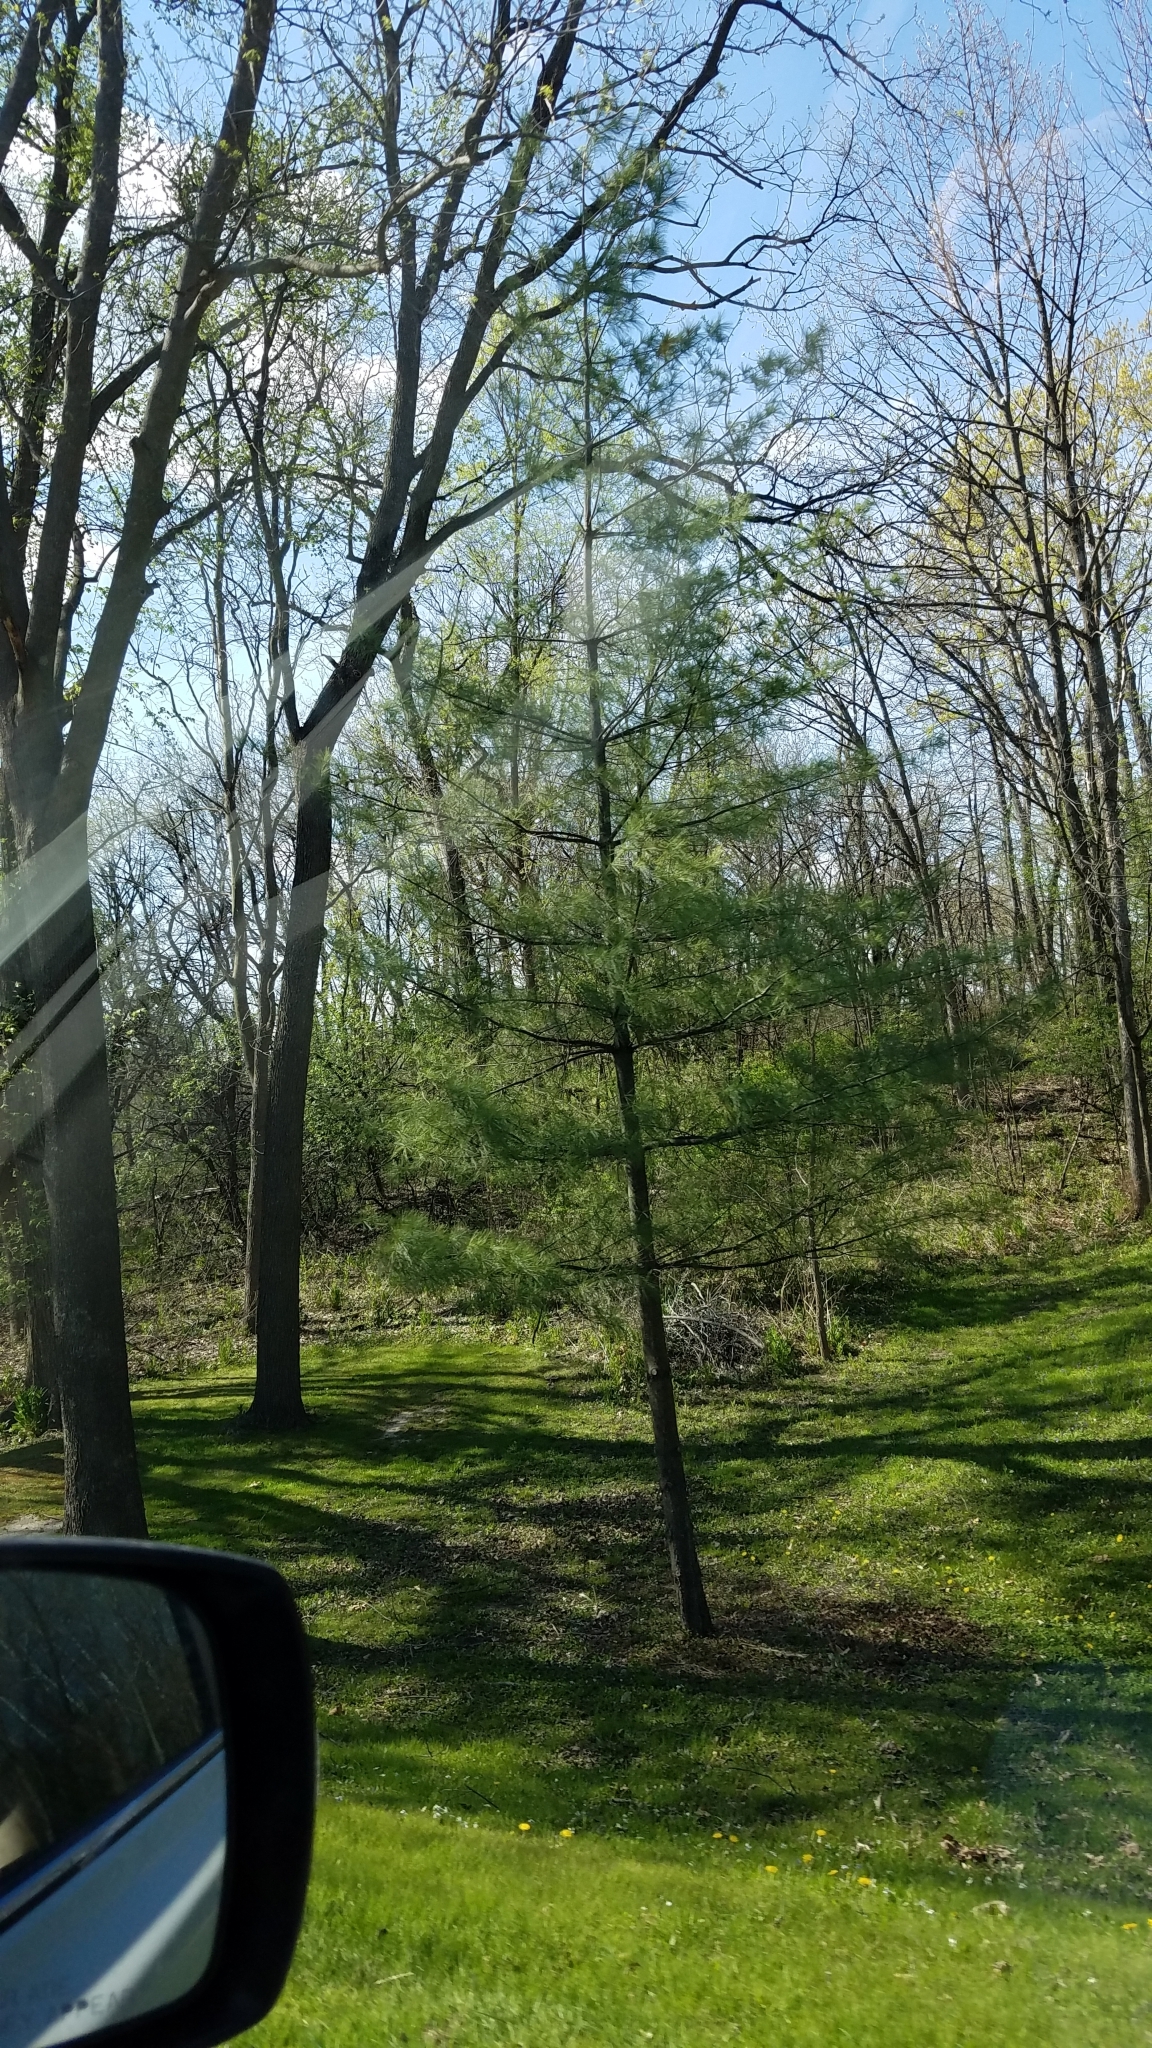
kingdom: Plantae
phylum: Tracheophyta
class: Pinopsida
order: Pinales
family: Pinaceae
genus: Pinus
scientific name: Pinus strobus
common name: Weymouth pine
